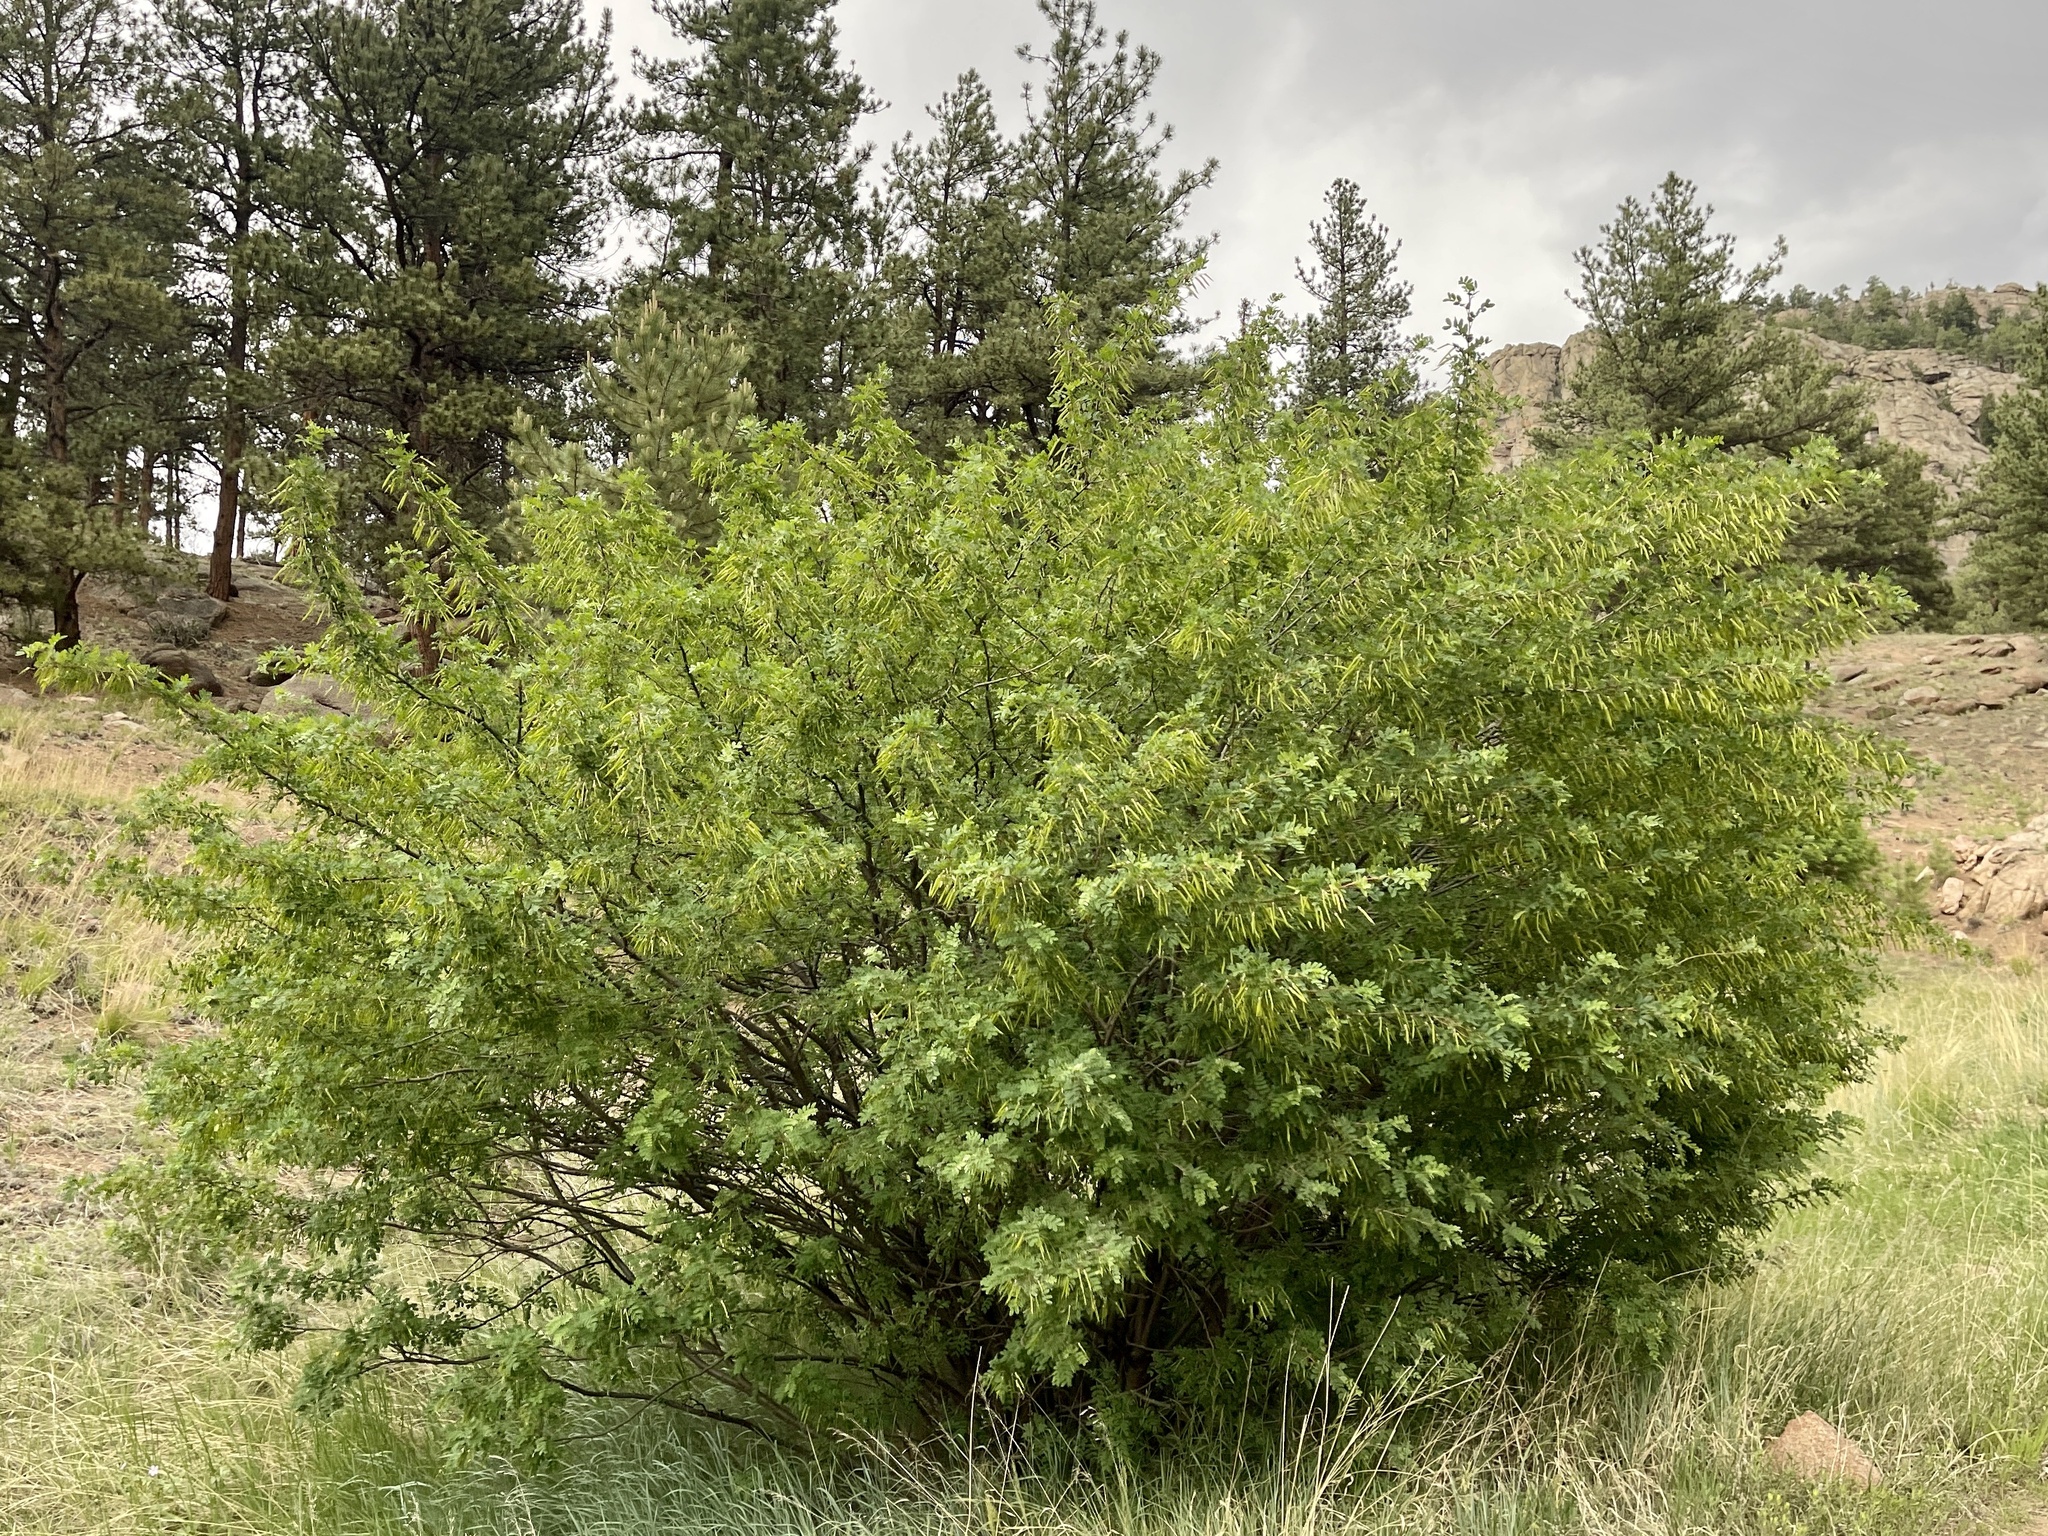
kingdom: Plantae
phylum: Tracheophyta
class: Magnoliopsida
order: Fabales
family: Fabaceae
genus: Caragana
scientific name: Caragana arborescens
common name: Siberian peashrub
